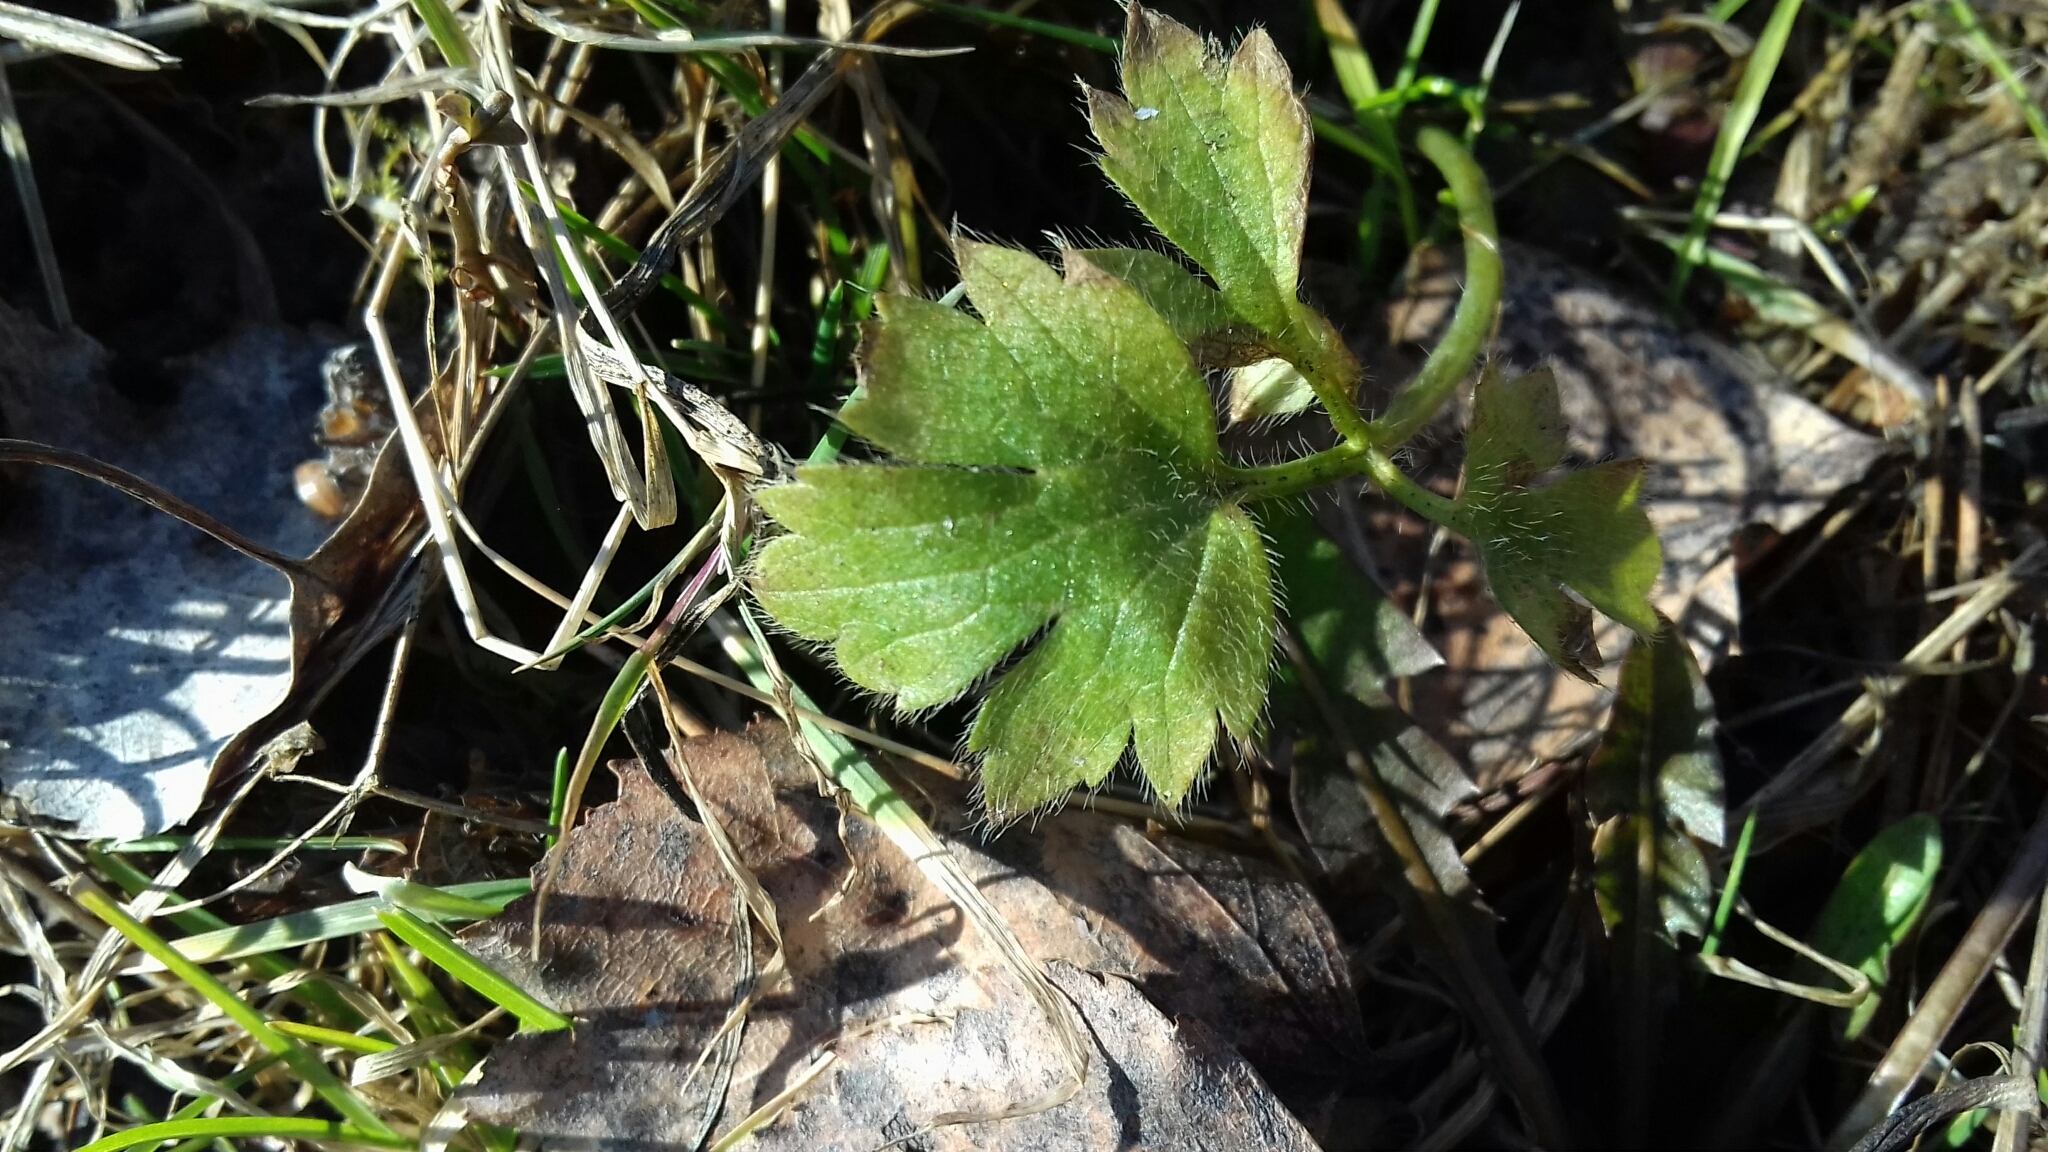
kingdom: Plantae
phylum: Tracheophyta
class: Magnoliopsida
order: Ranunculales
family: Ranunculaceae
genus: Ranunculus
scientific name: Ranunculus repens
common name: Creeping buttercup
